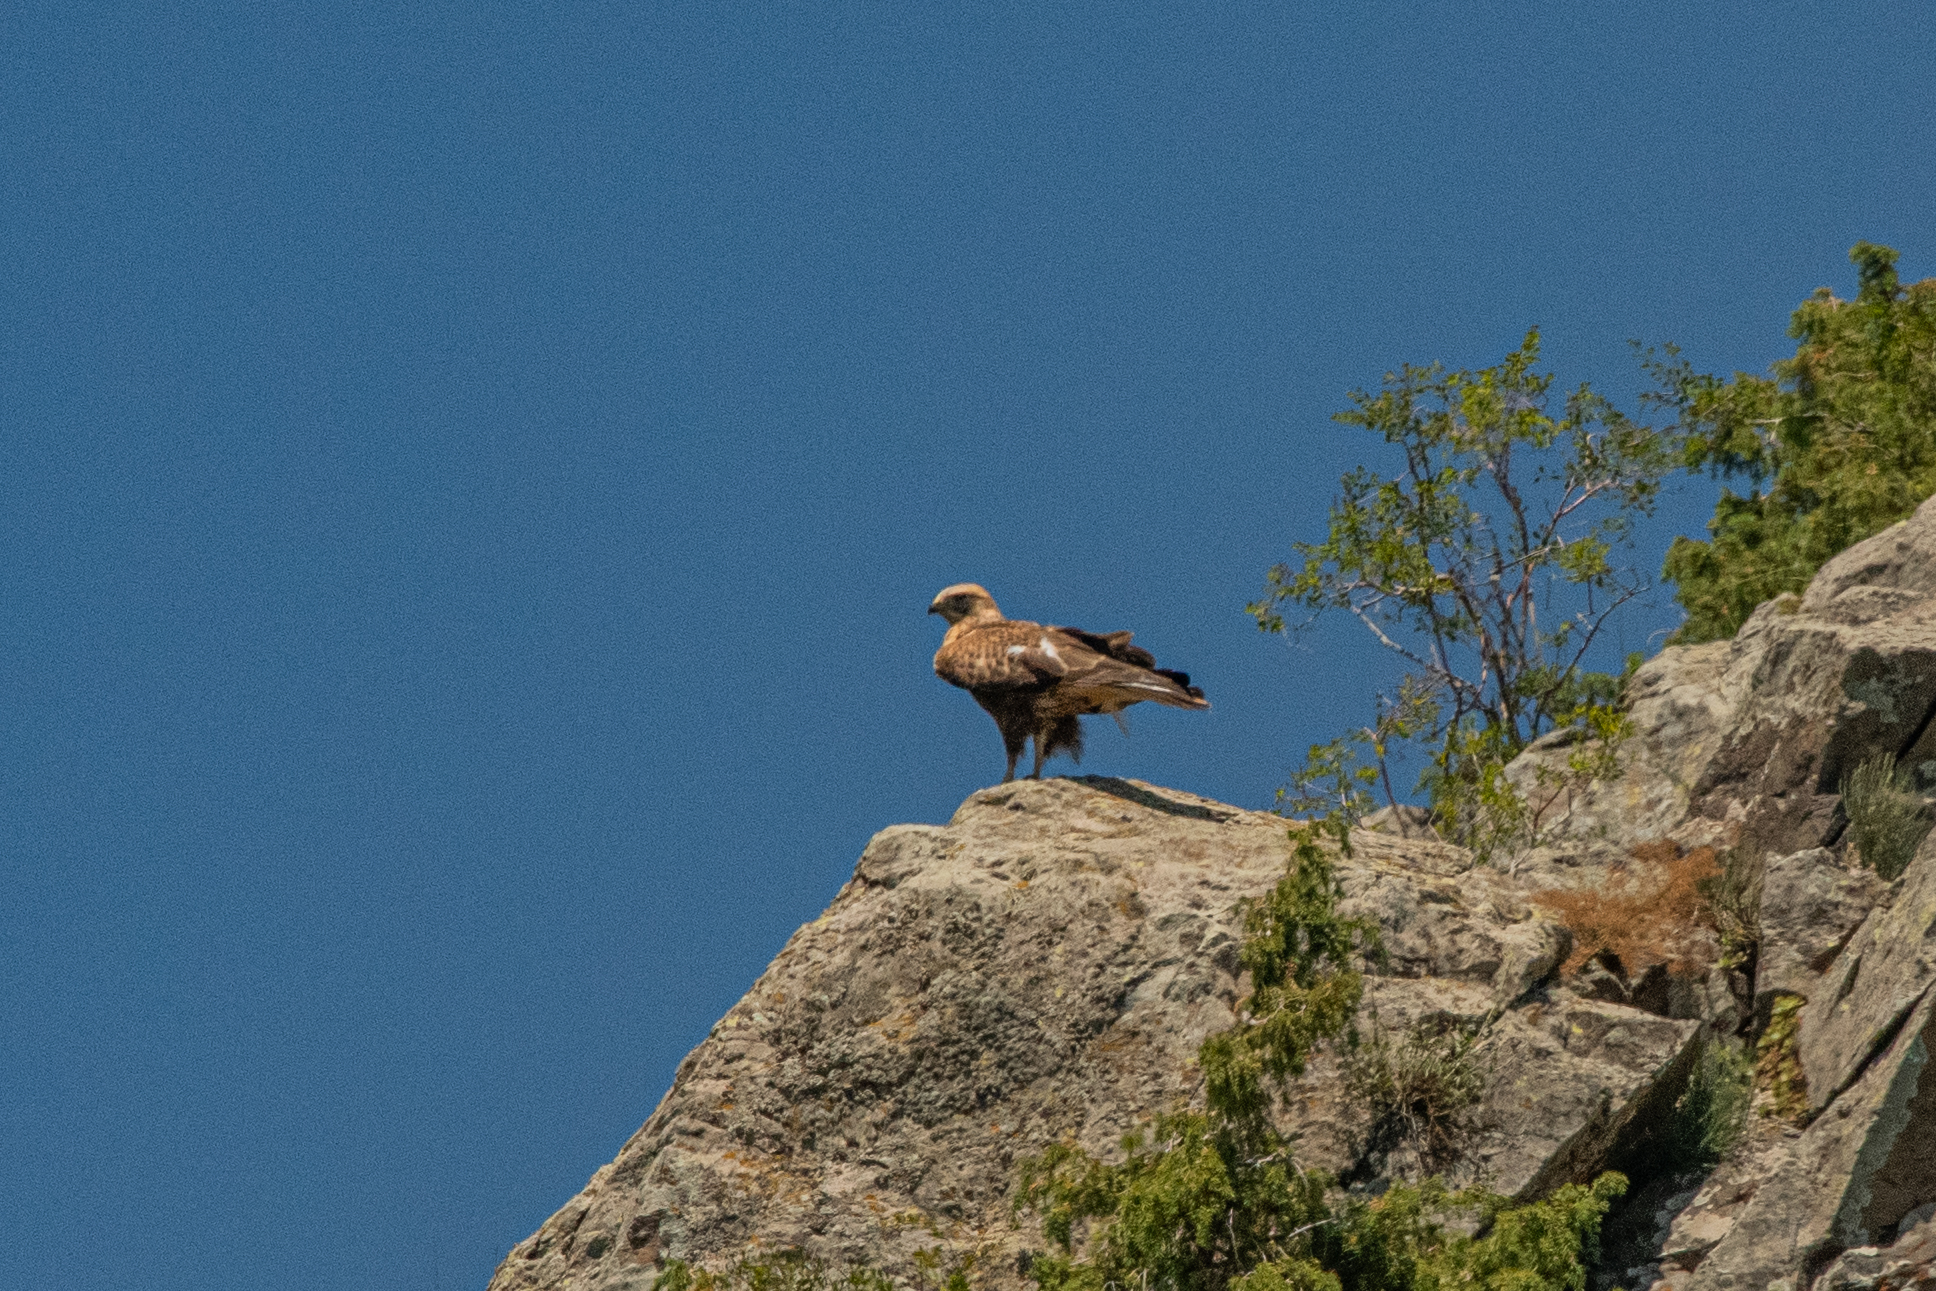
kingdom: Animalia
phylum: Chordata
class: Aves
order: Accipitriformes
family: Accipitridae
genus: Buteo
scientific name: Buteo rufinus
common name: Long-legged buzzard
